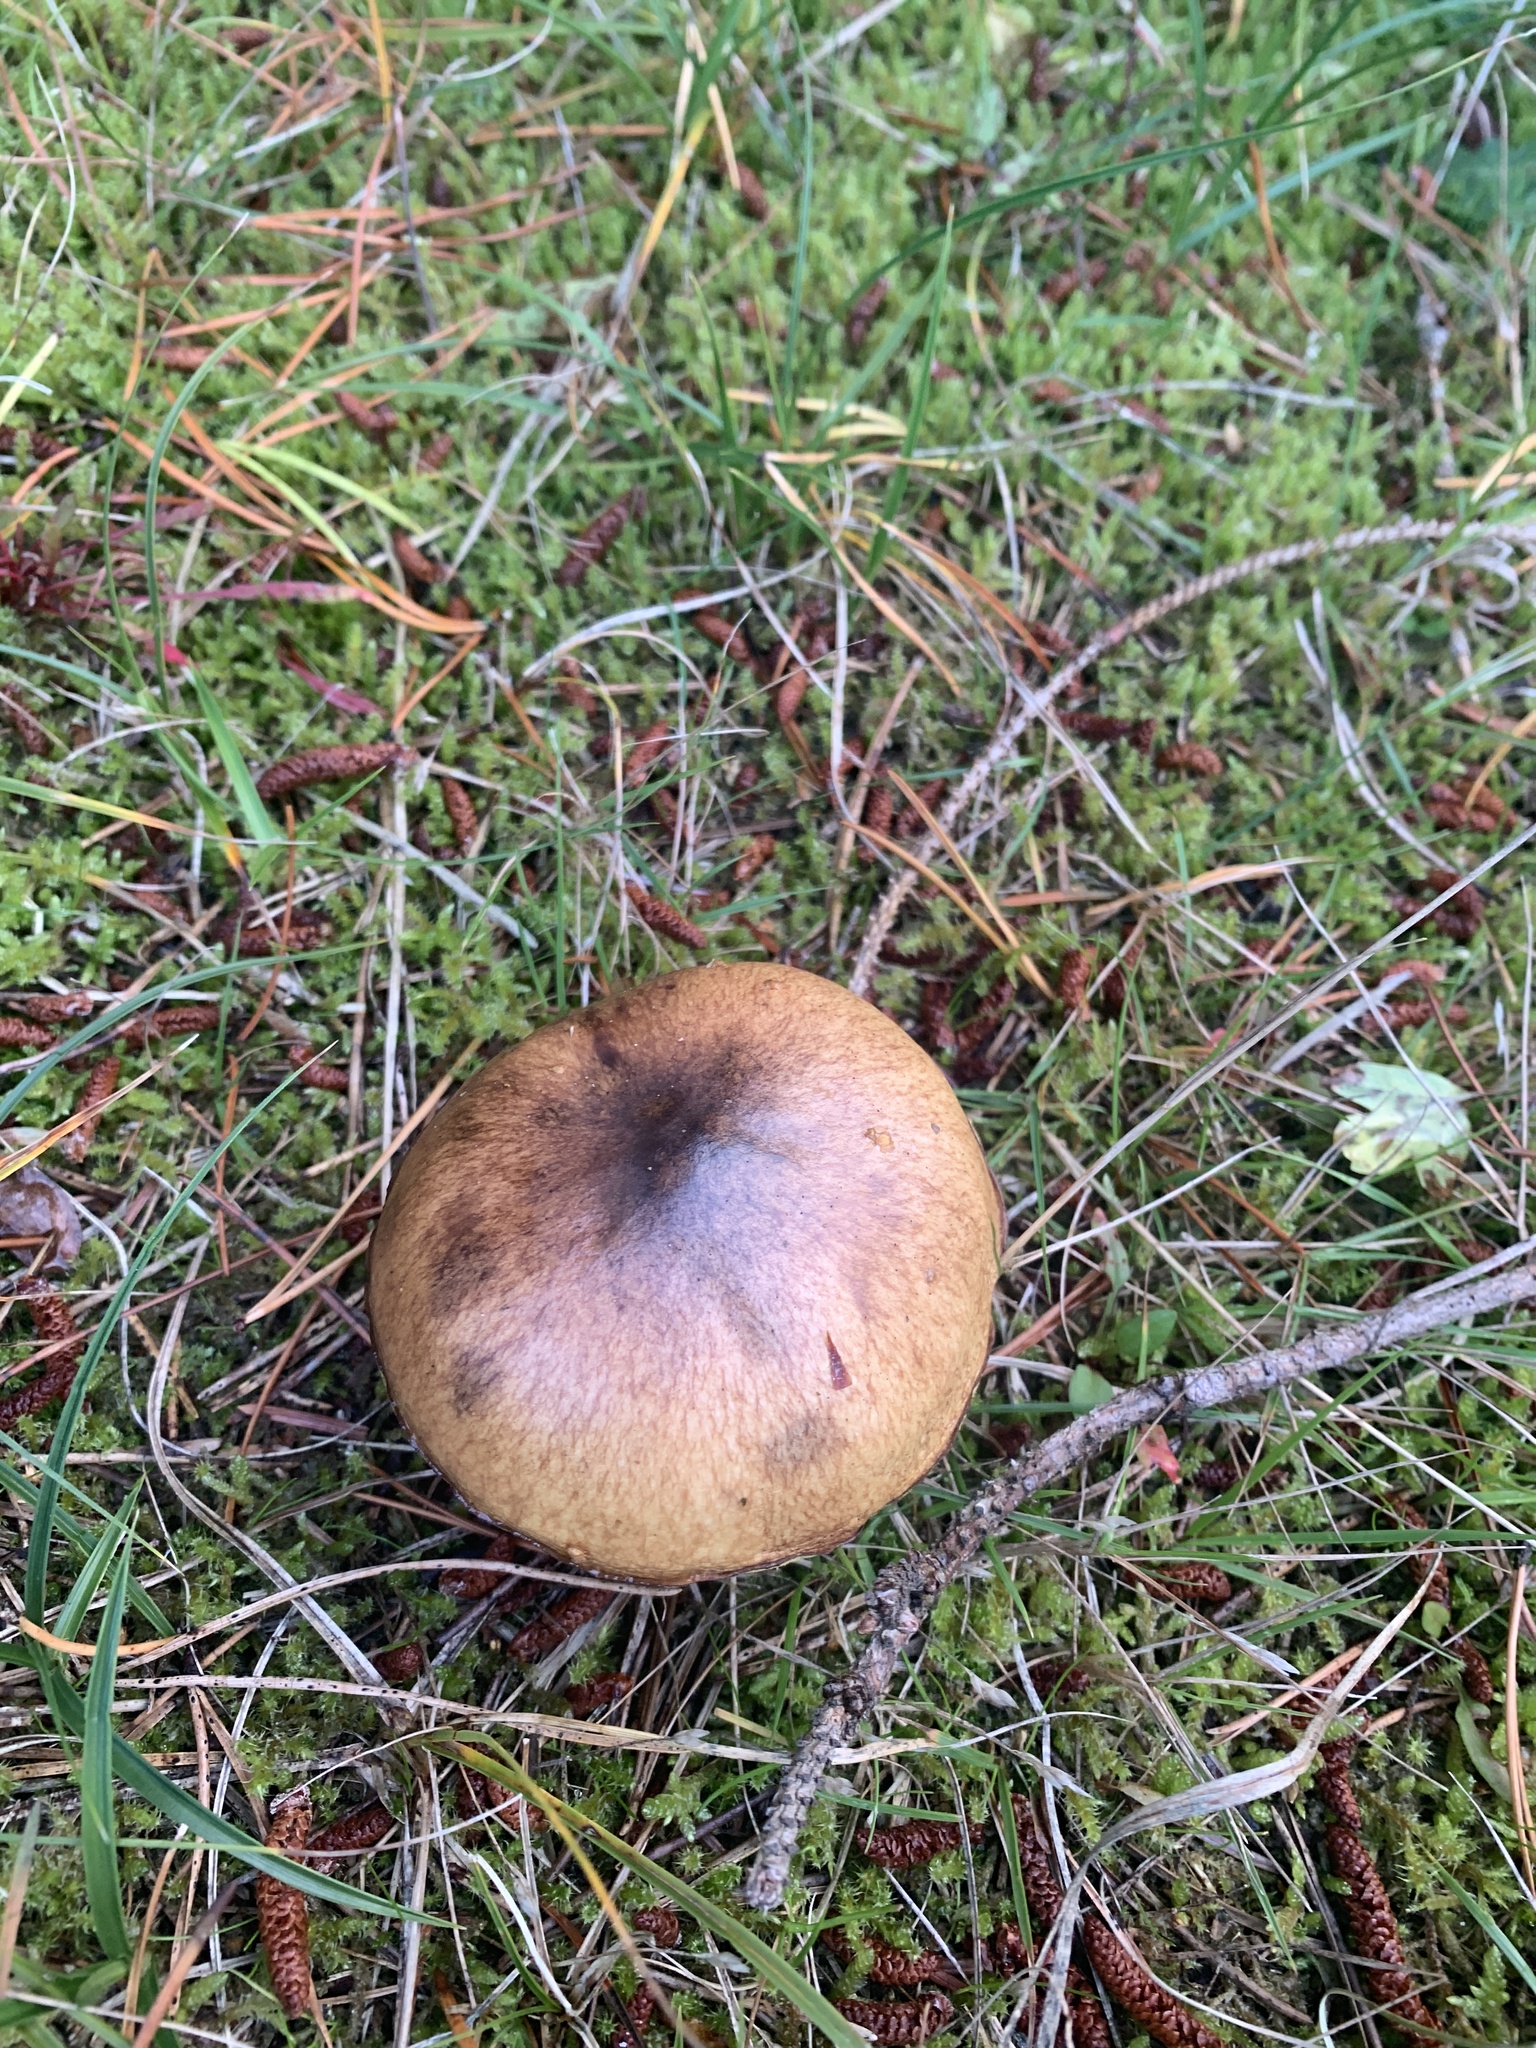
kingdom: Fungi
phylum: Basidiomycota
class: Agaricomycetes
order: Boletales
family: Suillaceae
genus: Suillus
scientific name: Suillus luteus
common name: Slippery jack
